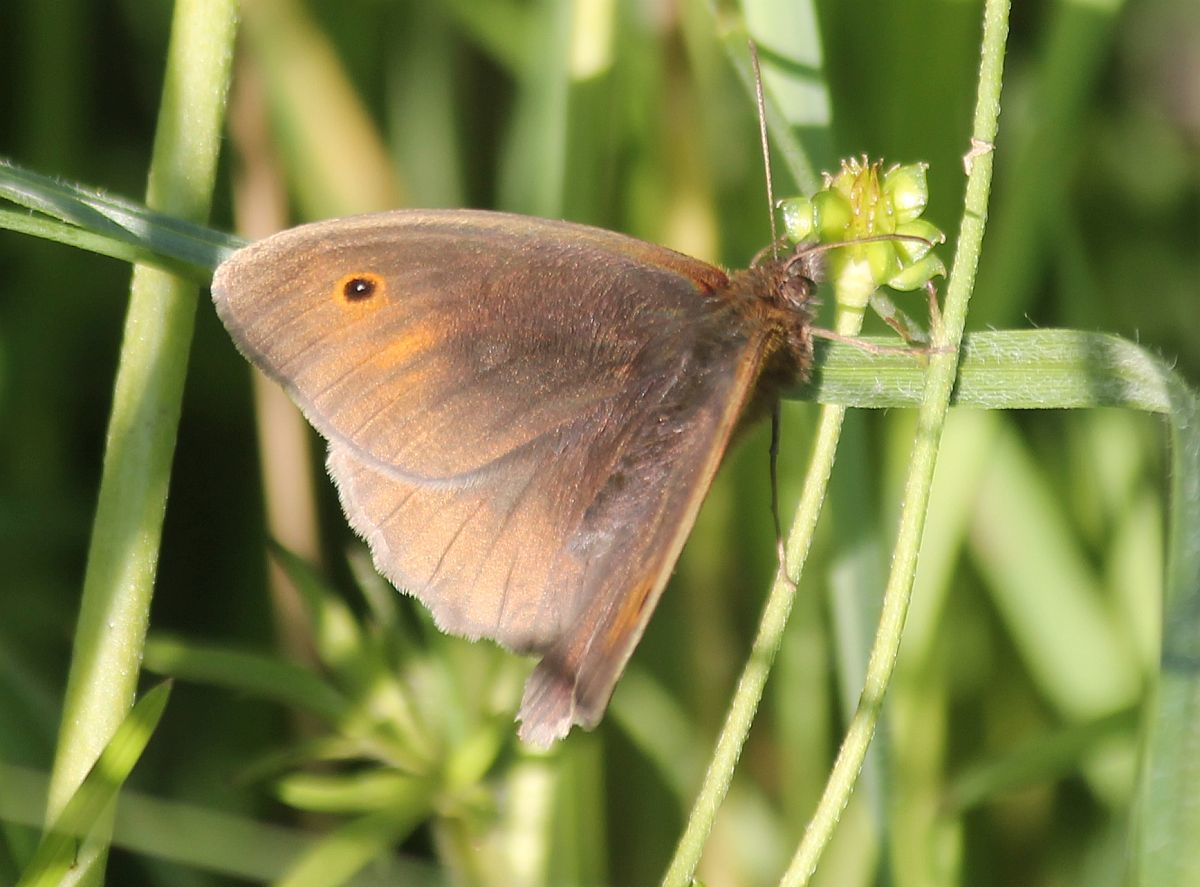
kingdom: Animalia
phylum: Arthropoda
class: Insecta
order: Lepidoptera
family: Nymphalidae
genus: Maniola
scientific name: Maniola jurtina
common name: Meadow brown
